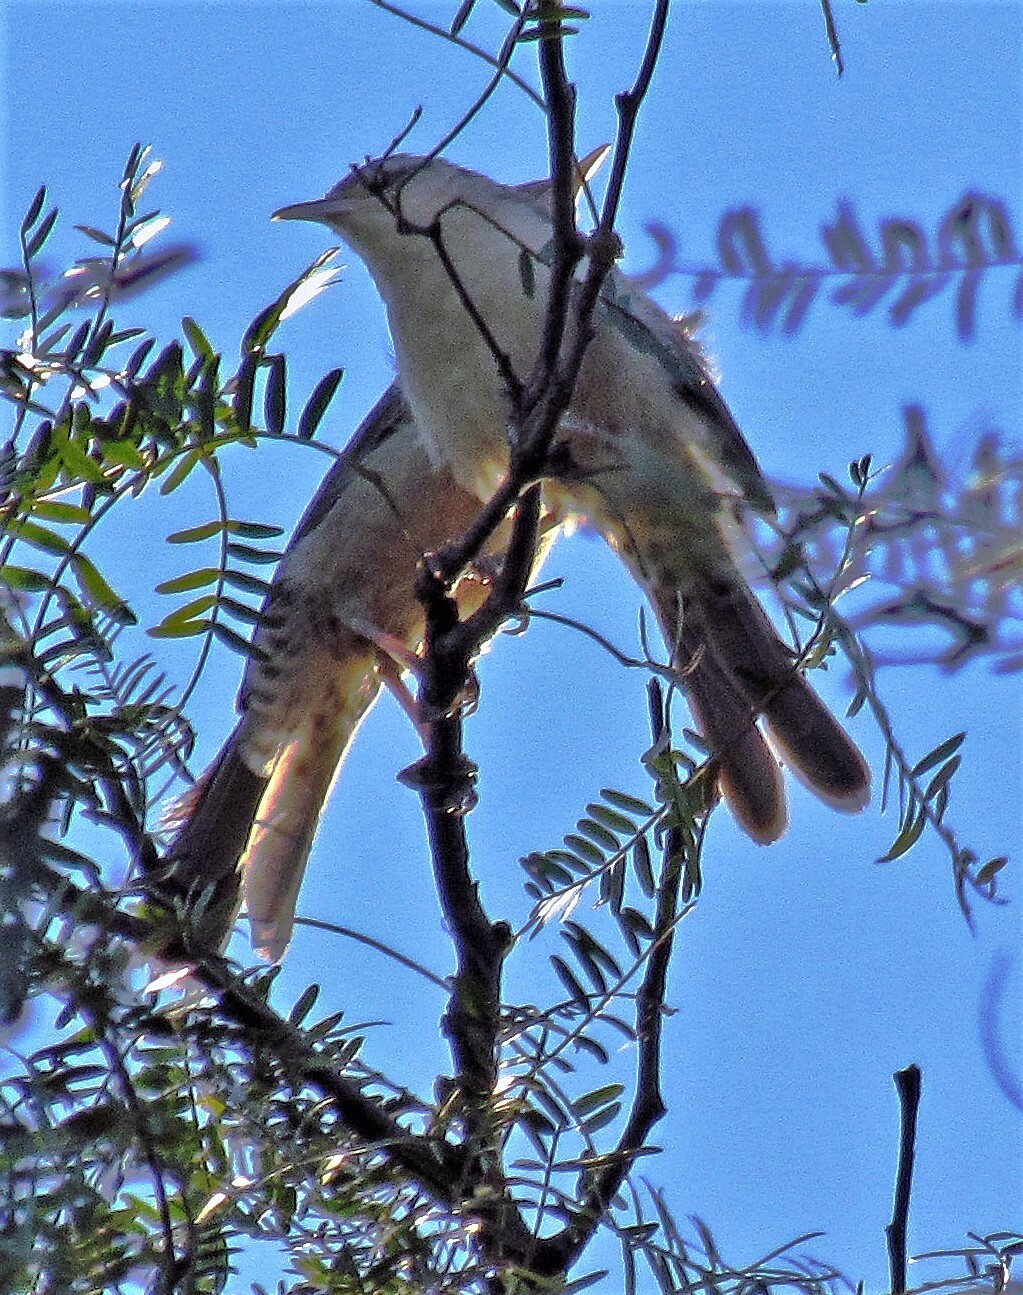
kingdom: Animalia
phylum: Chordata
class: Aves
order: Passeriformes
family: Troglodytidae
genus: Campylorhynchus
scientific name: Campylorhynchus turdinus
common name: Thrush-like wren
